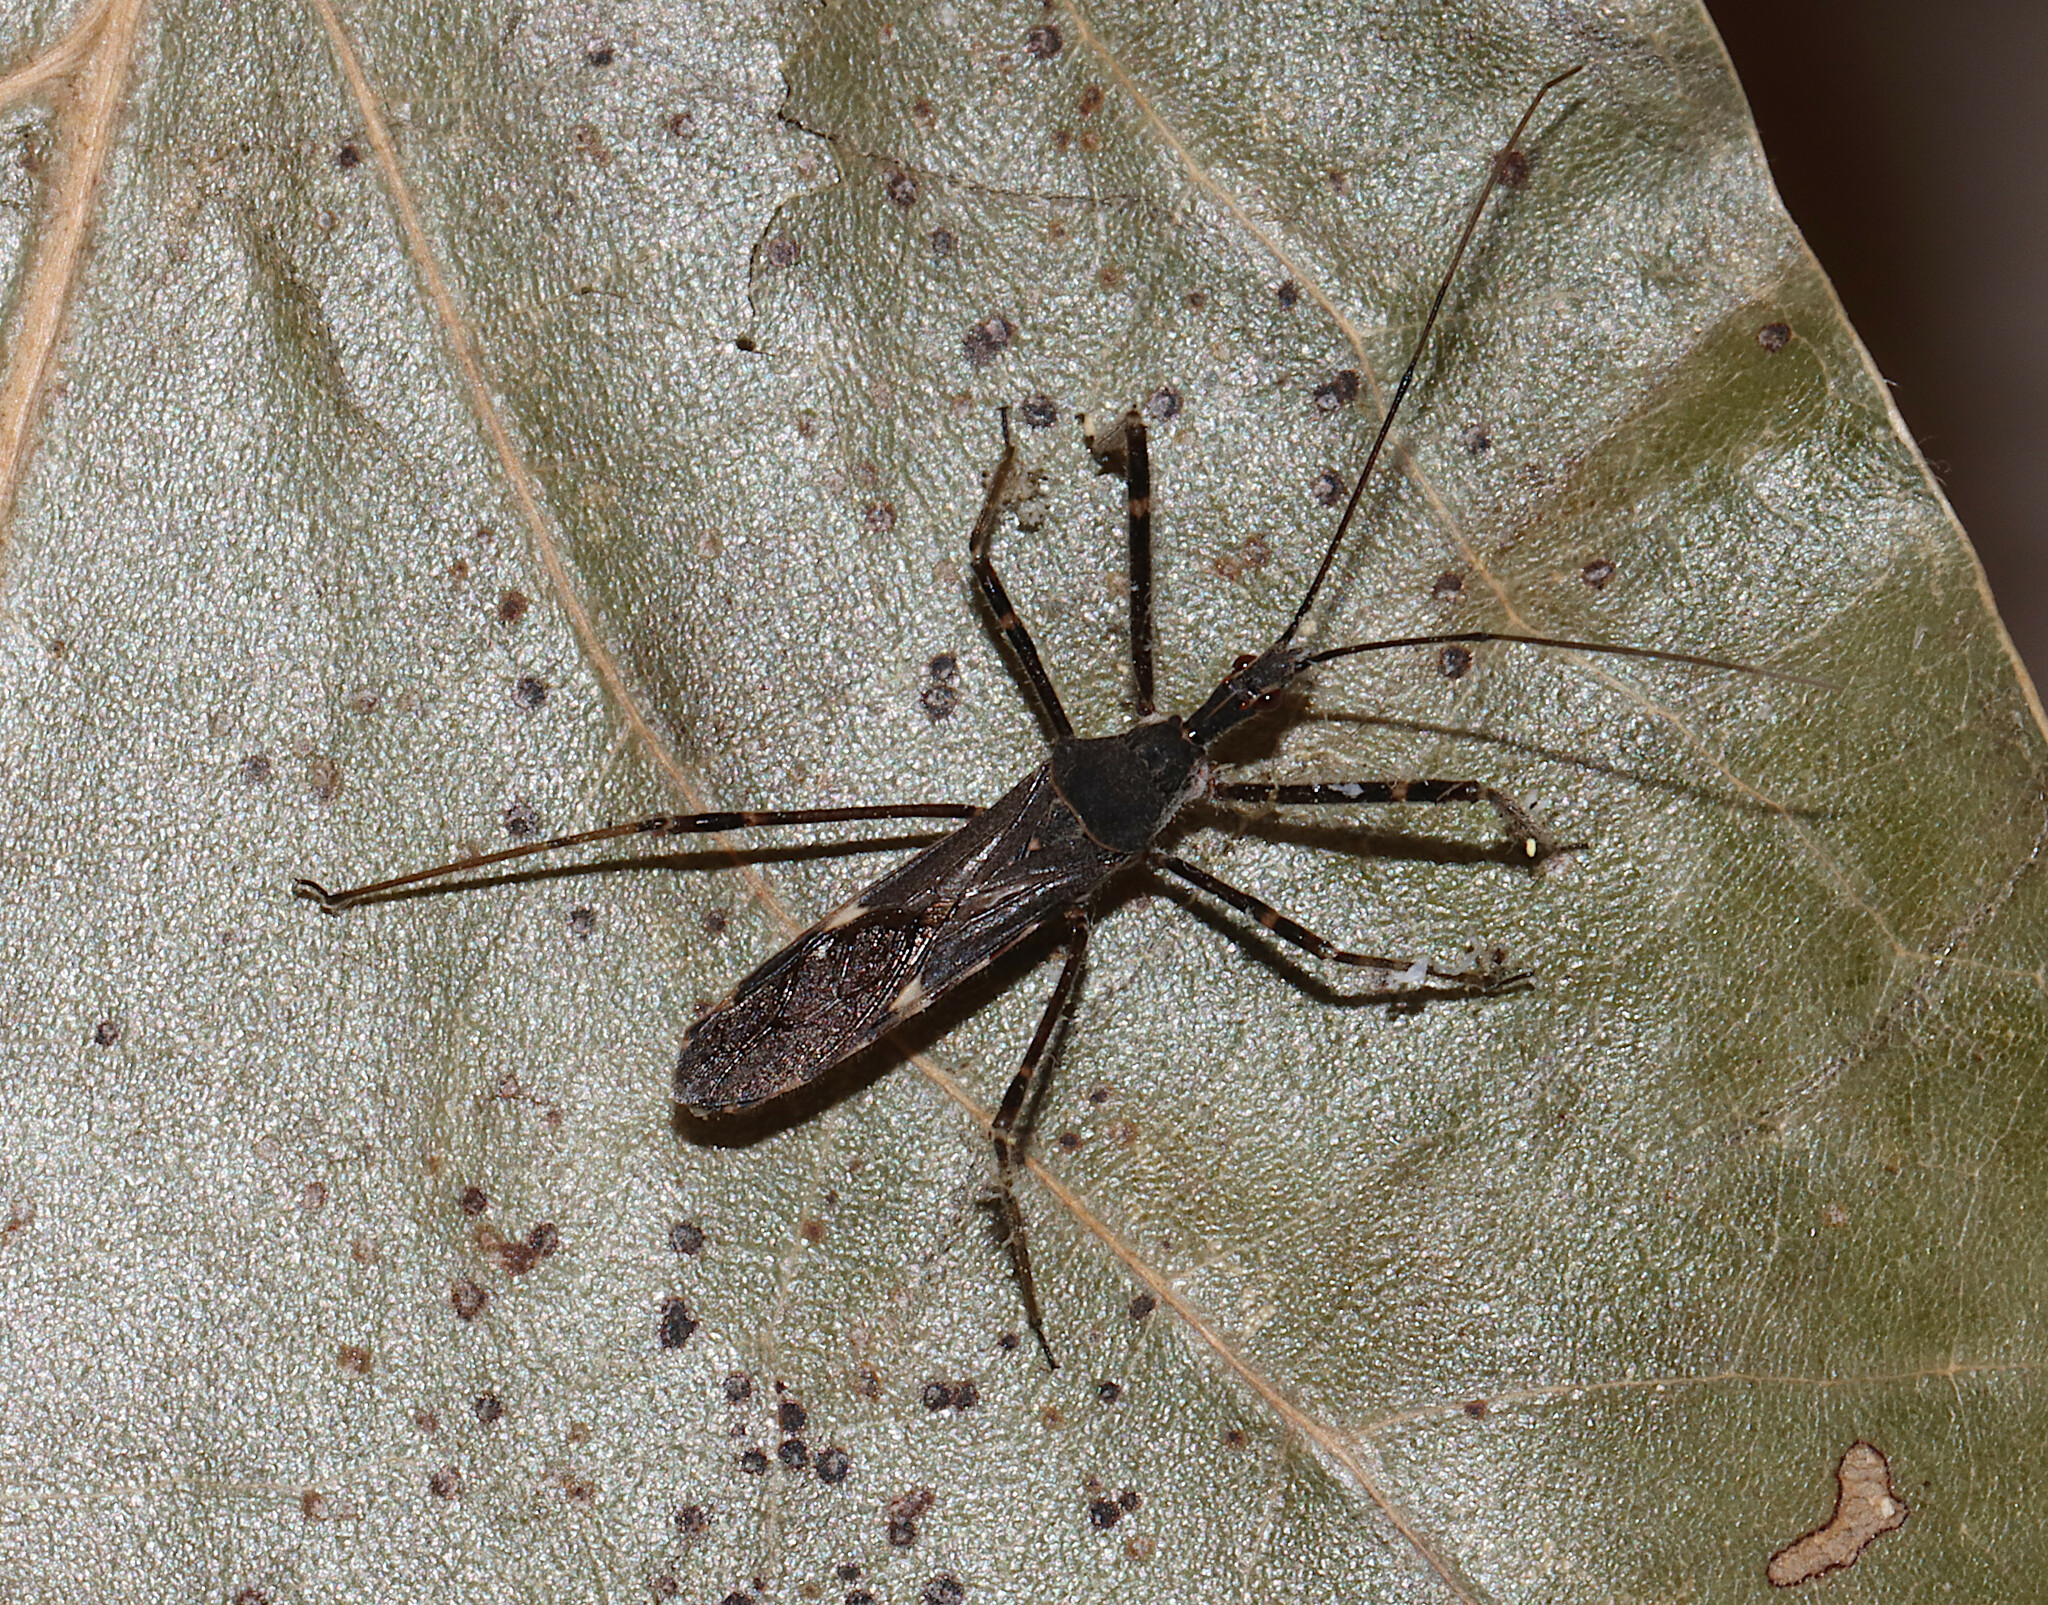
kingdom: Animalia
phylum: Arthropoda
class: Insecta
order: Hemiptera
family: Reduviidae
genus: Zelus
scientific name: Zelus tetracanthus
